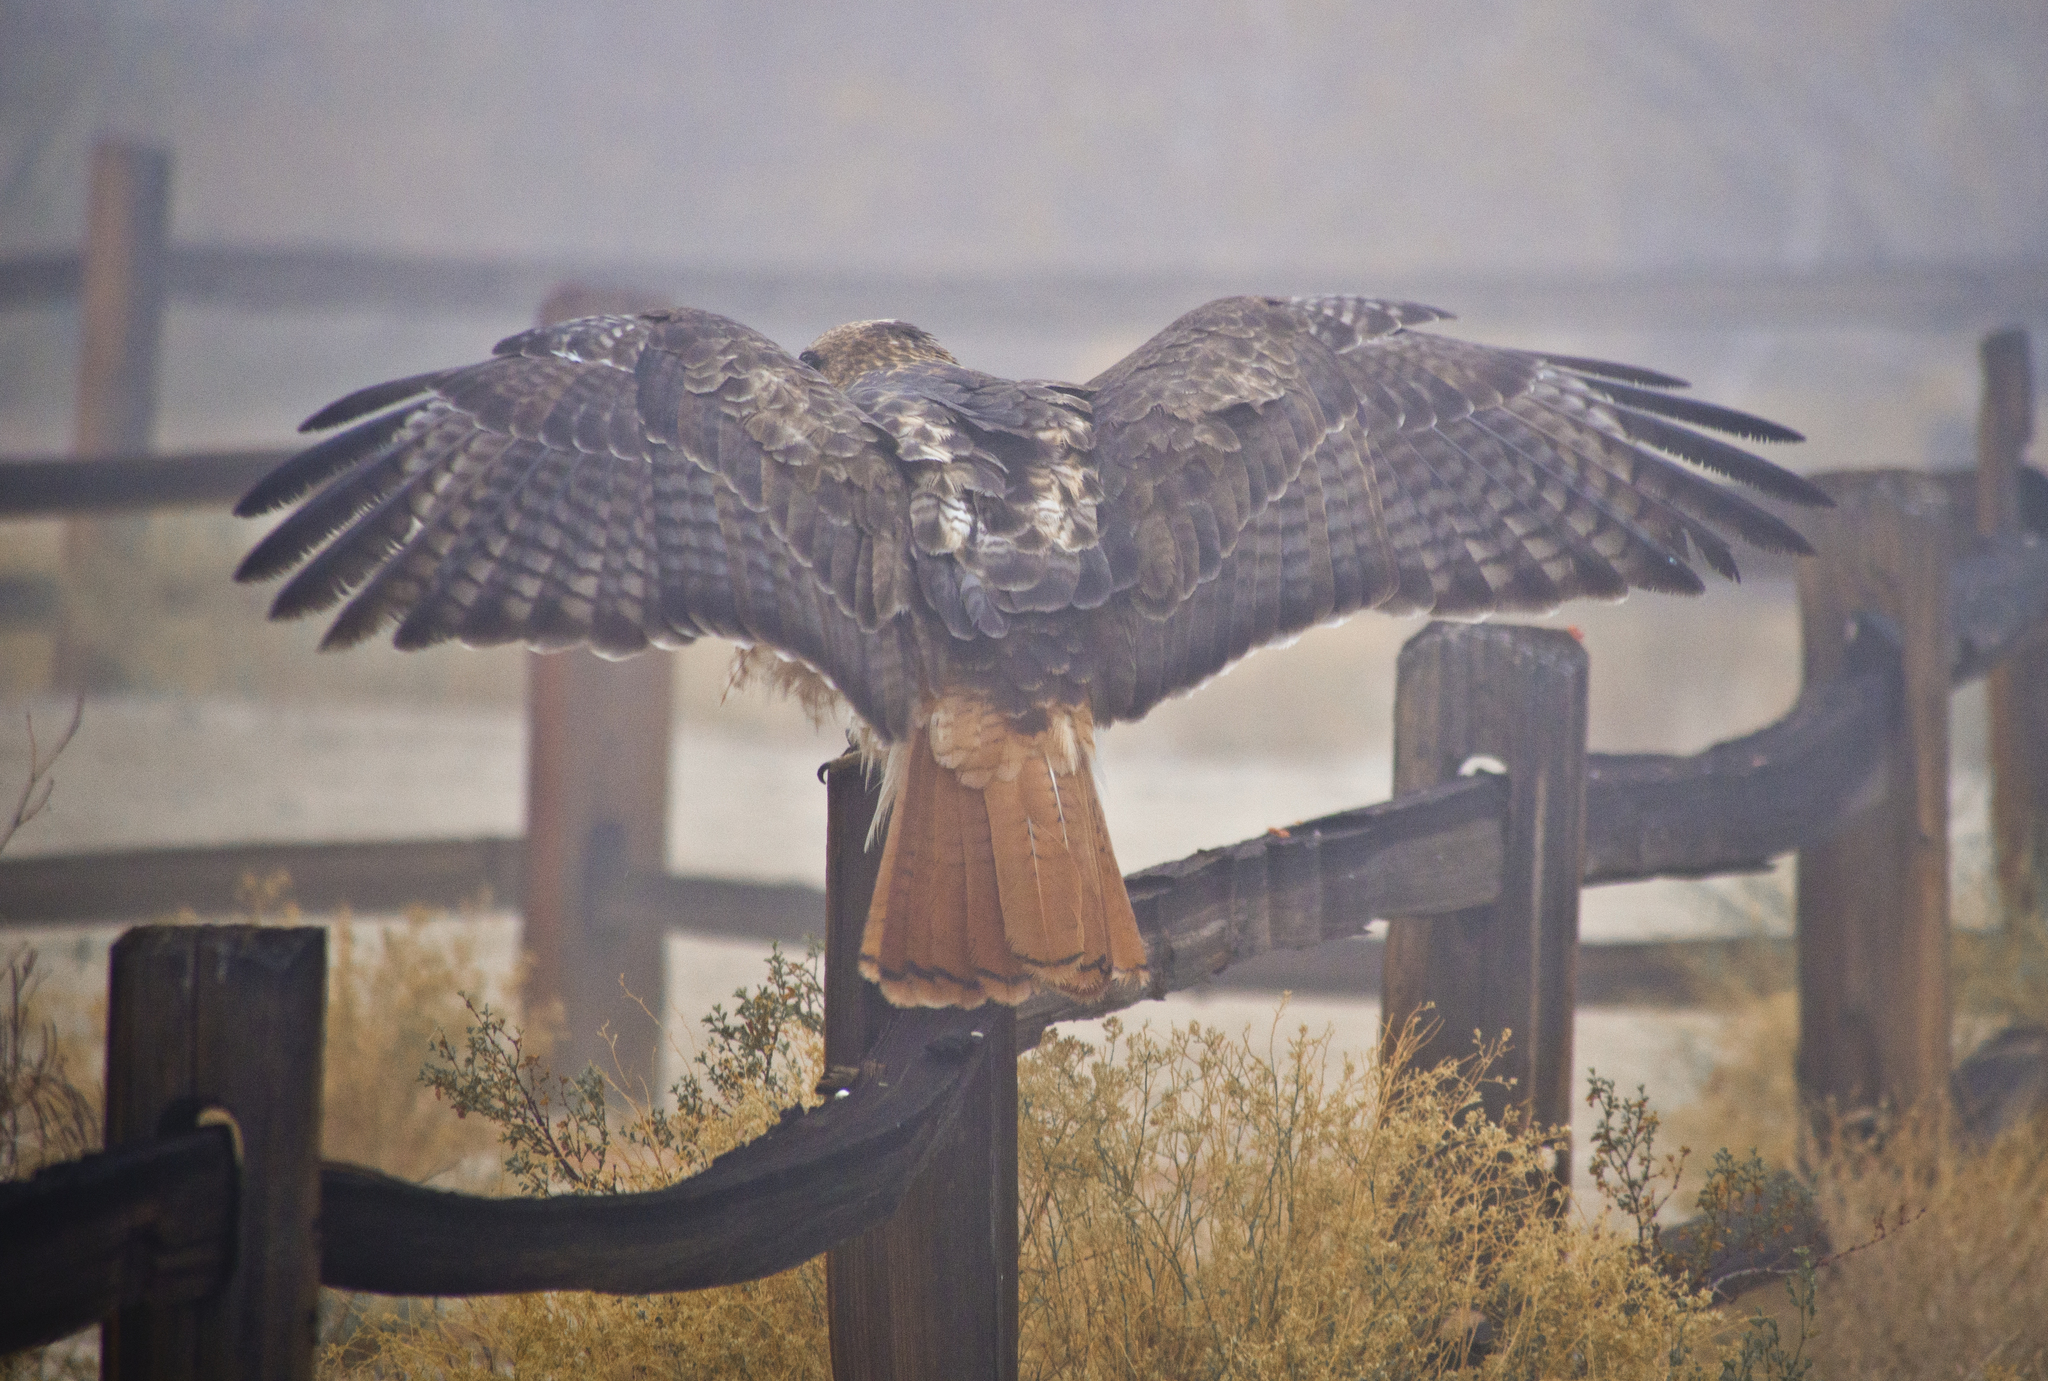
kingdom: Animalia
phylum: Chordata
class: Aves
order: Accipitriformes
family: Accipitridae
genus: Buteo
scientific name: Buteo jamaicensis
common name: Red-tailed hawk
